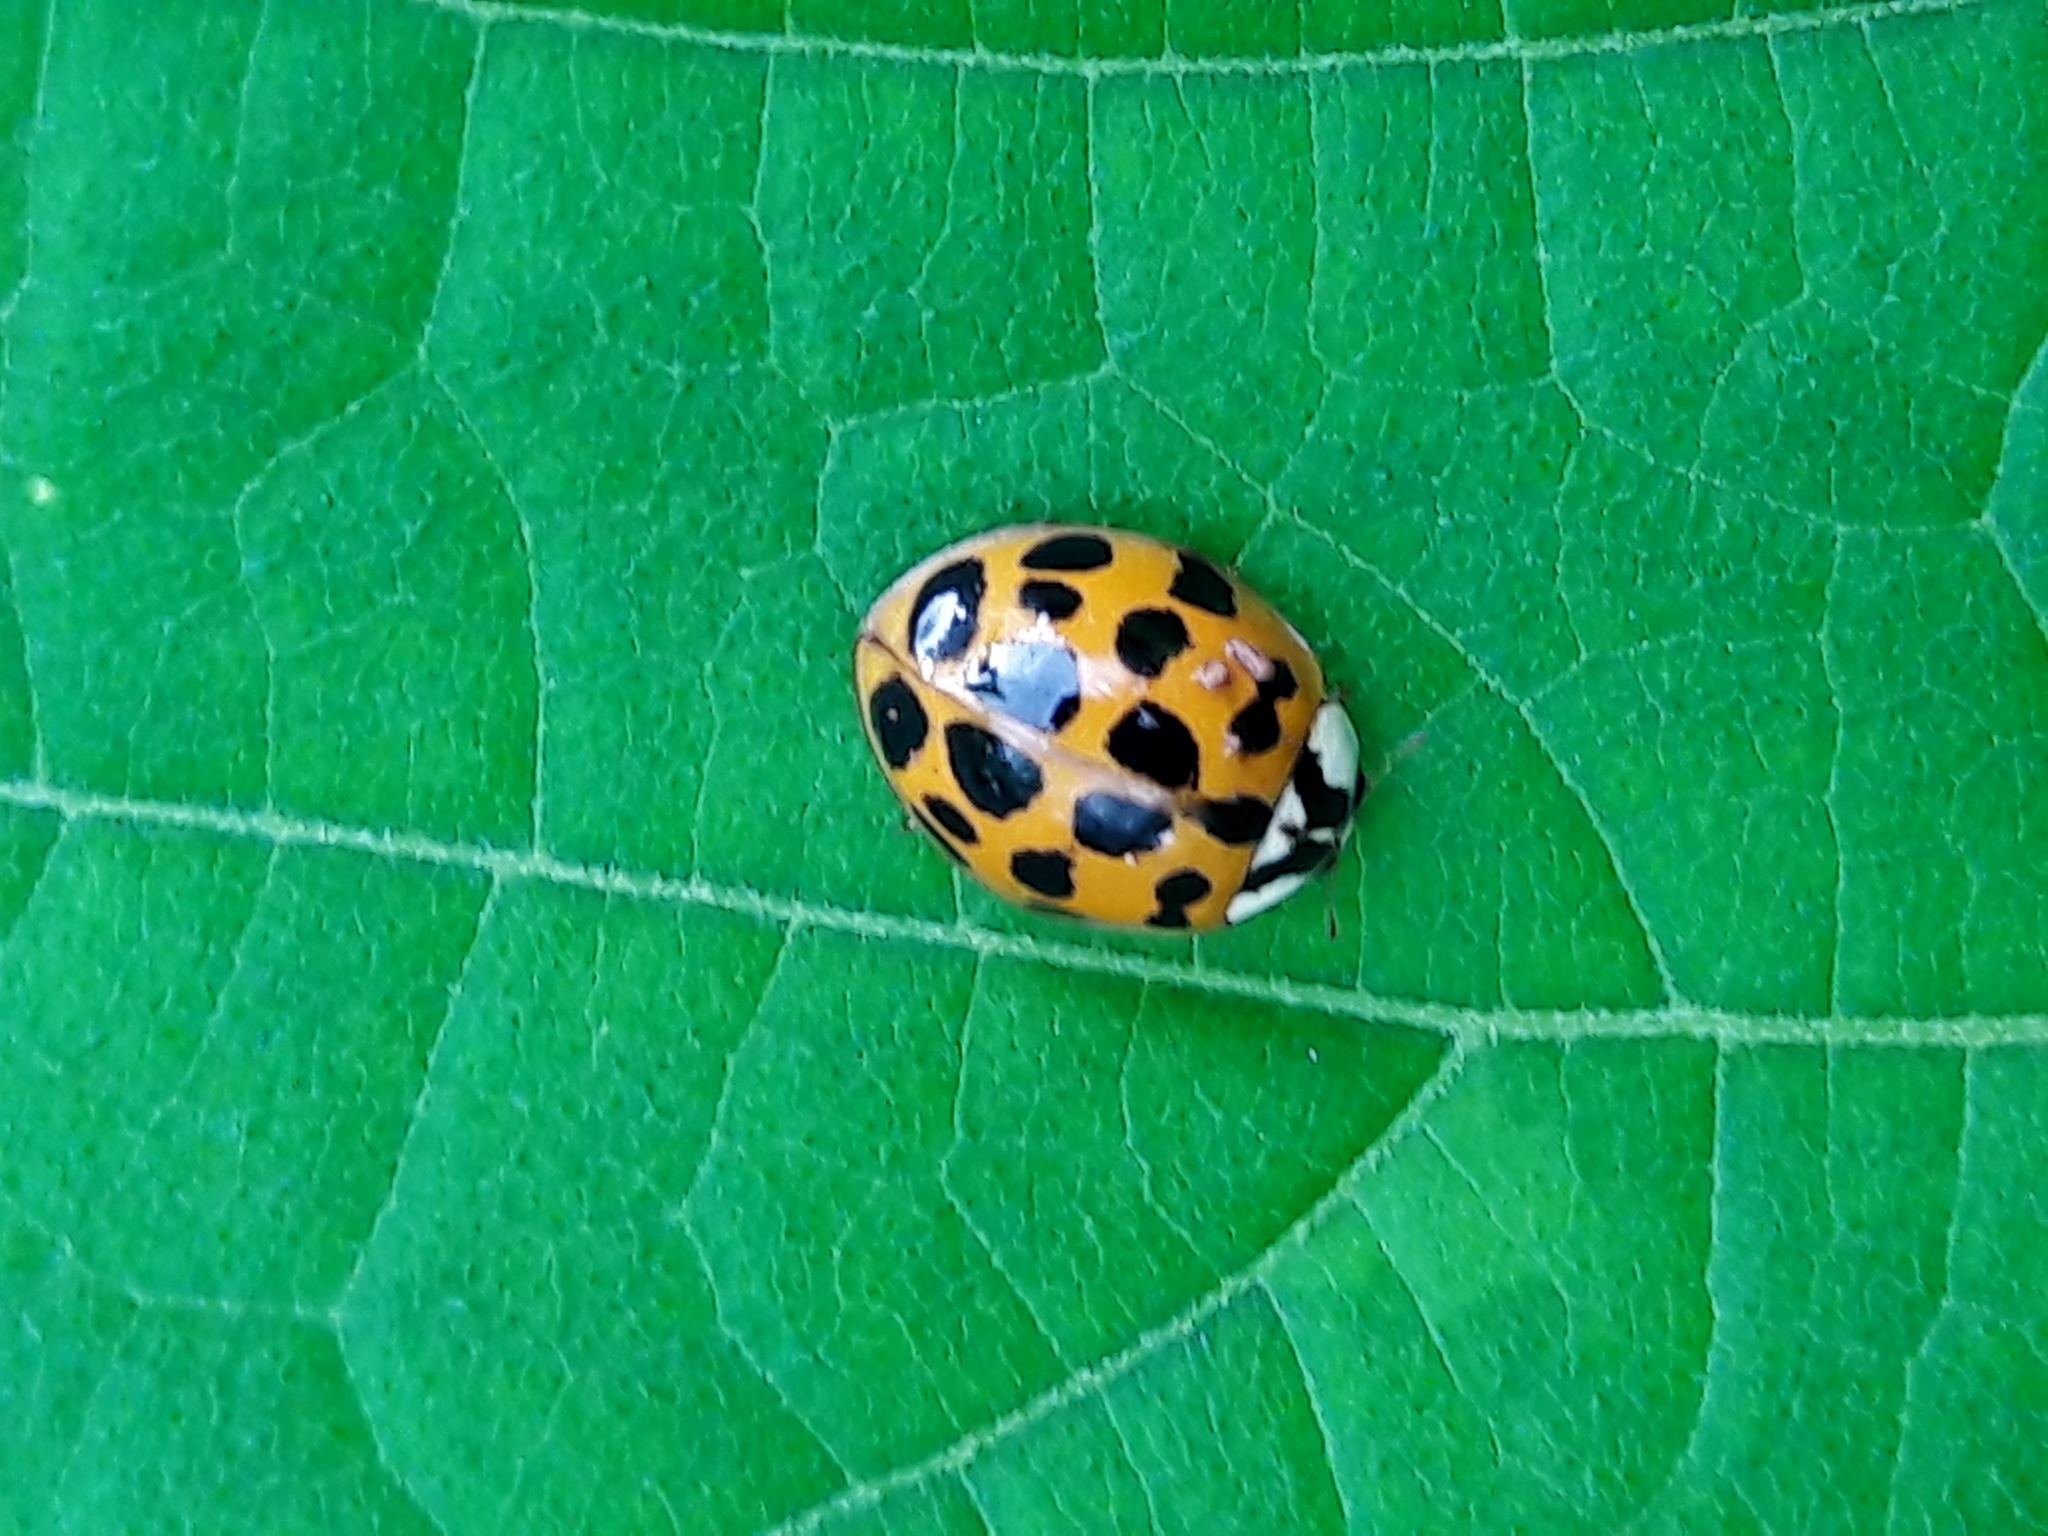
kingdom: Animalia
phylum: Arthropoda
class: Insecta
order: Coleoptera
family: Coccinellidae
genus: Harmonia
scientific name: Harmonia axyridis
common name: Harlequin ladybird
